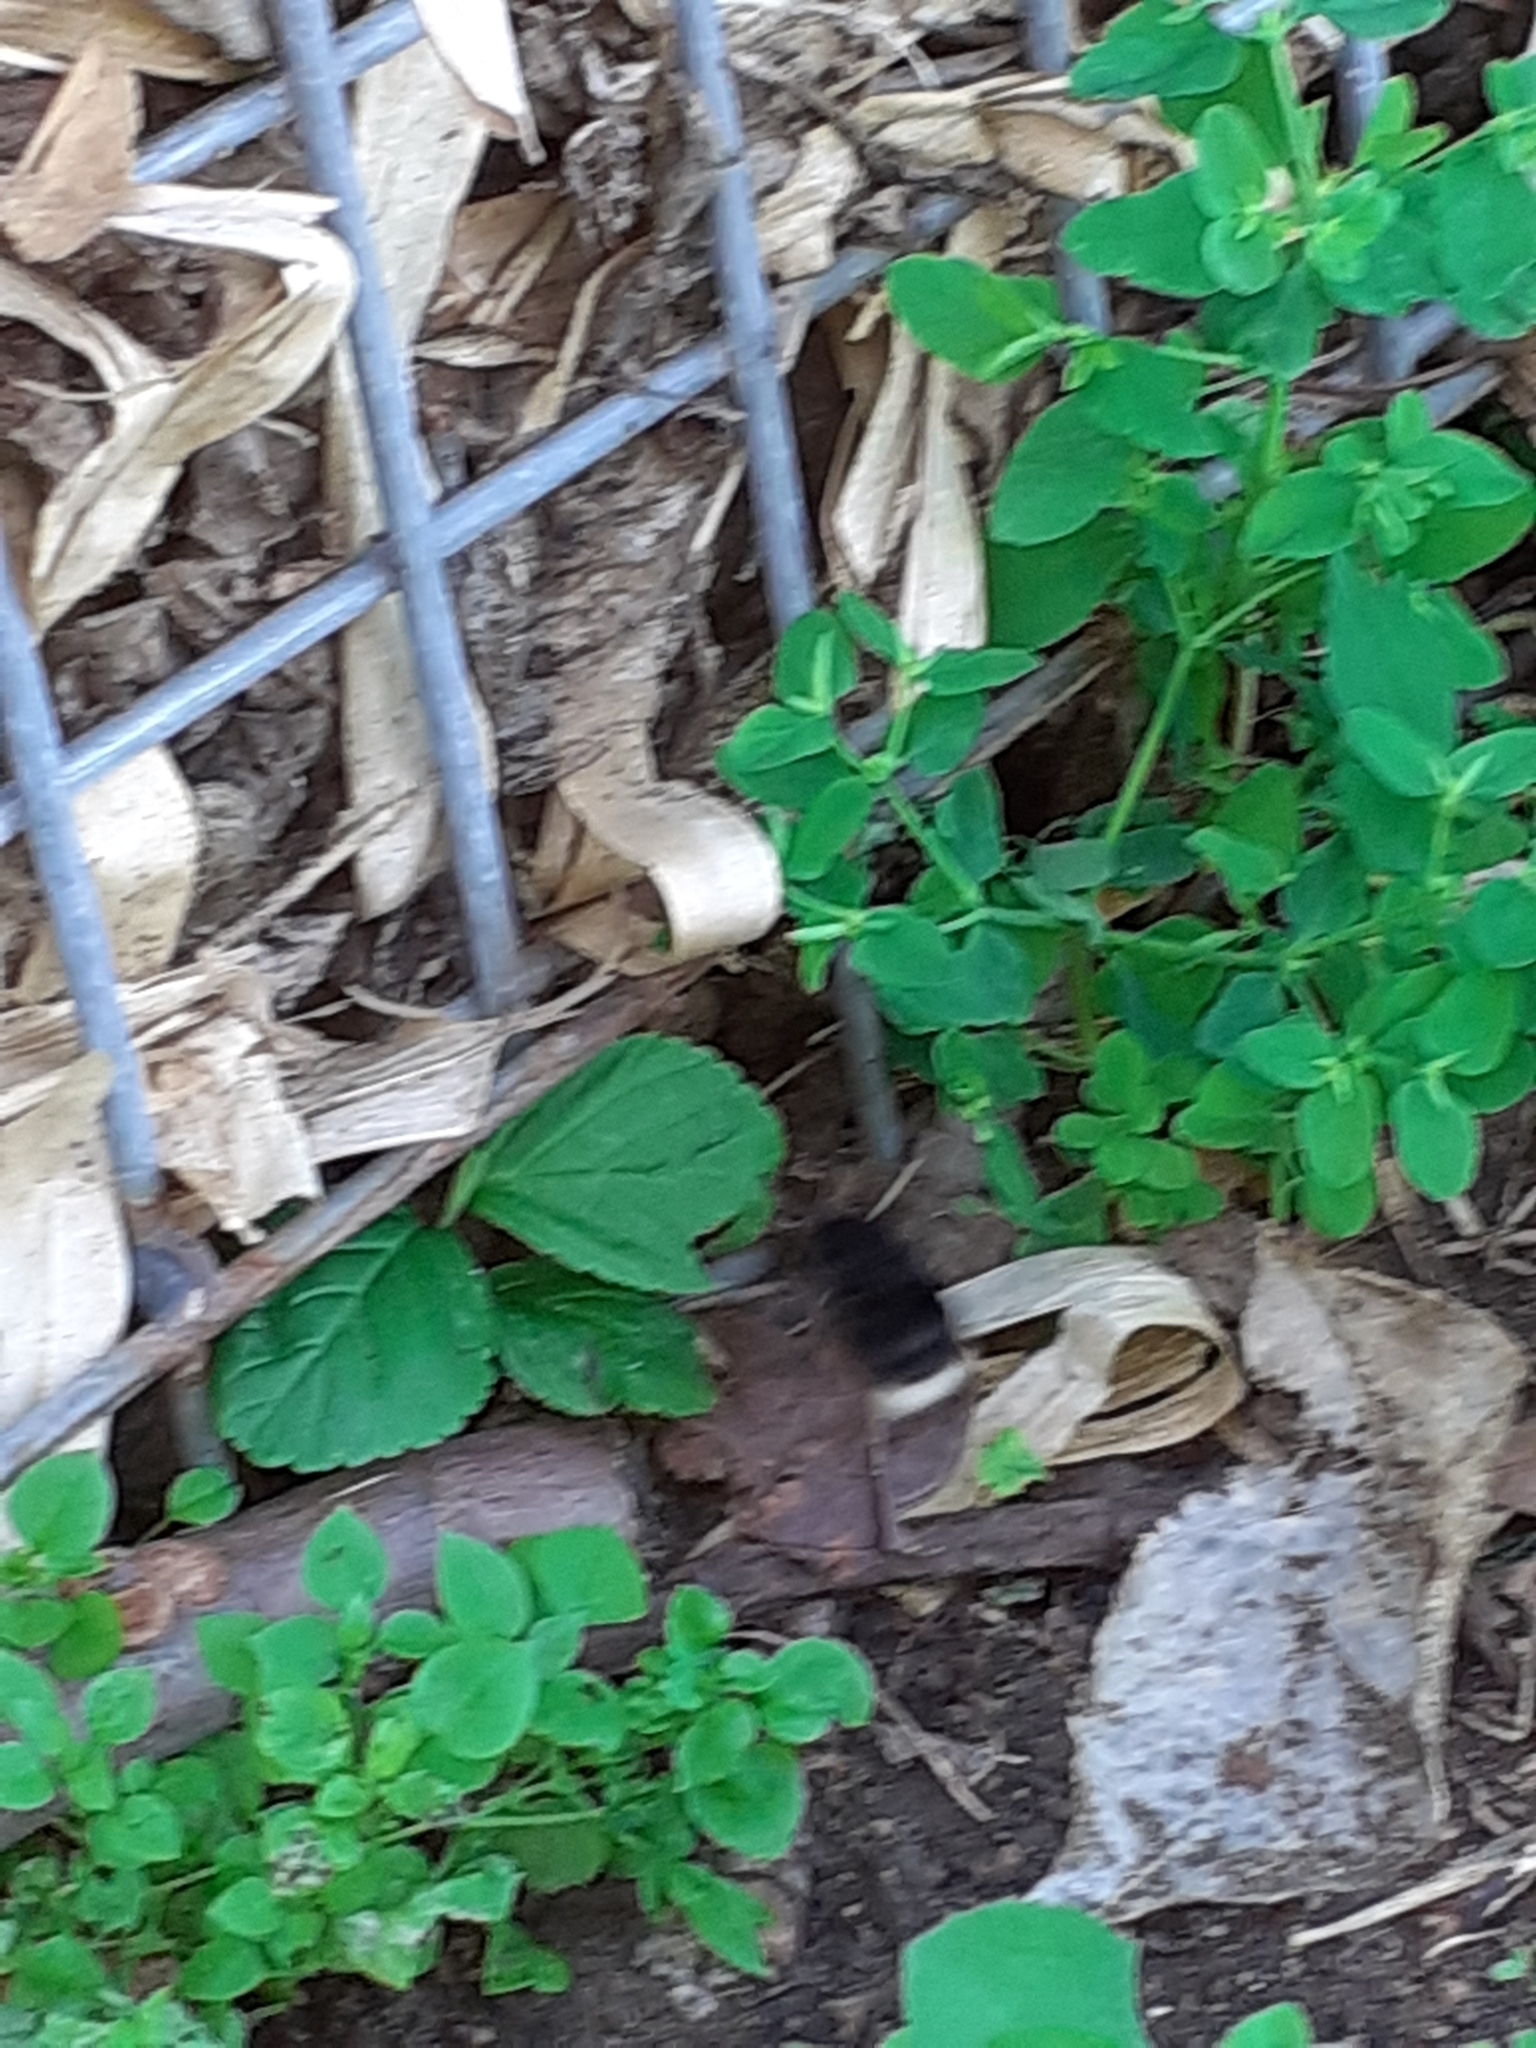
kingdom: Animalia
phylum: Arthropoda
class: Insecta
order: Hymenoptera
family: Apidae
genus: Bombus
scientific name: Bombus terrestris
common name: Buff-tailed bumblebee
